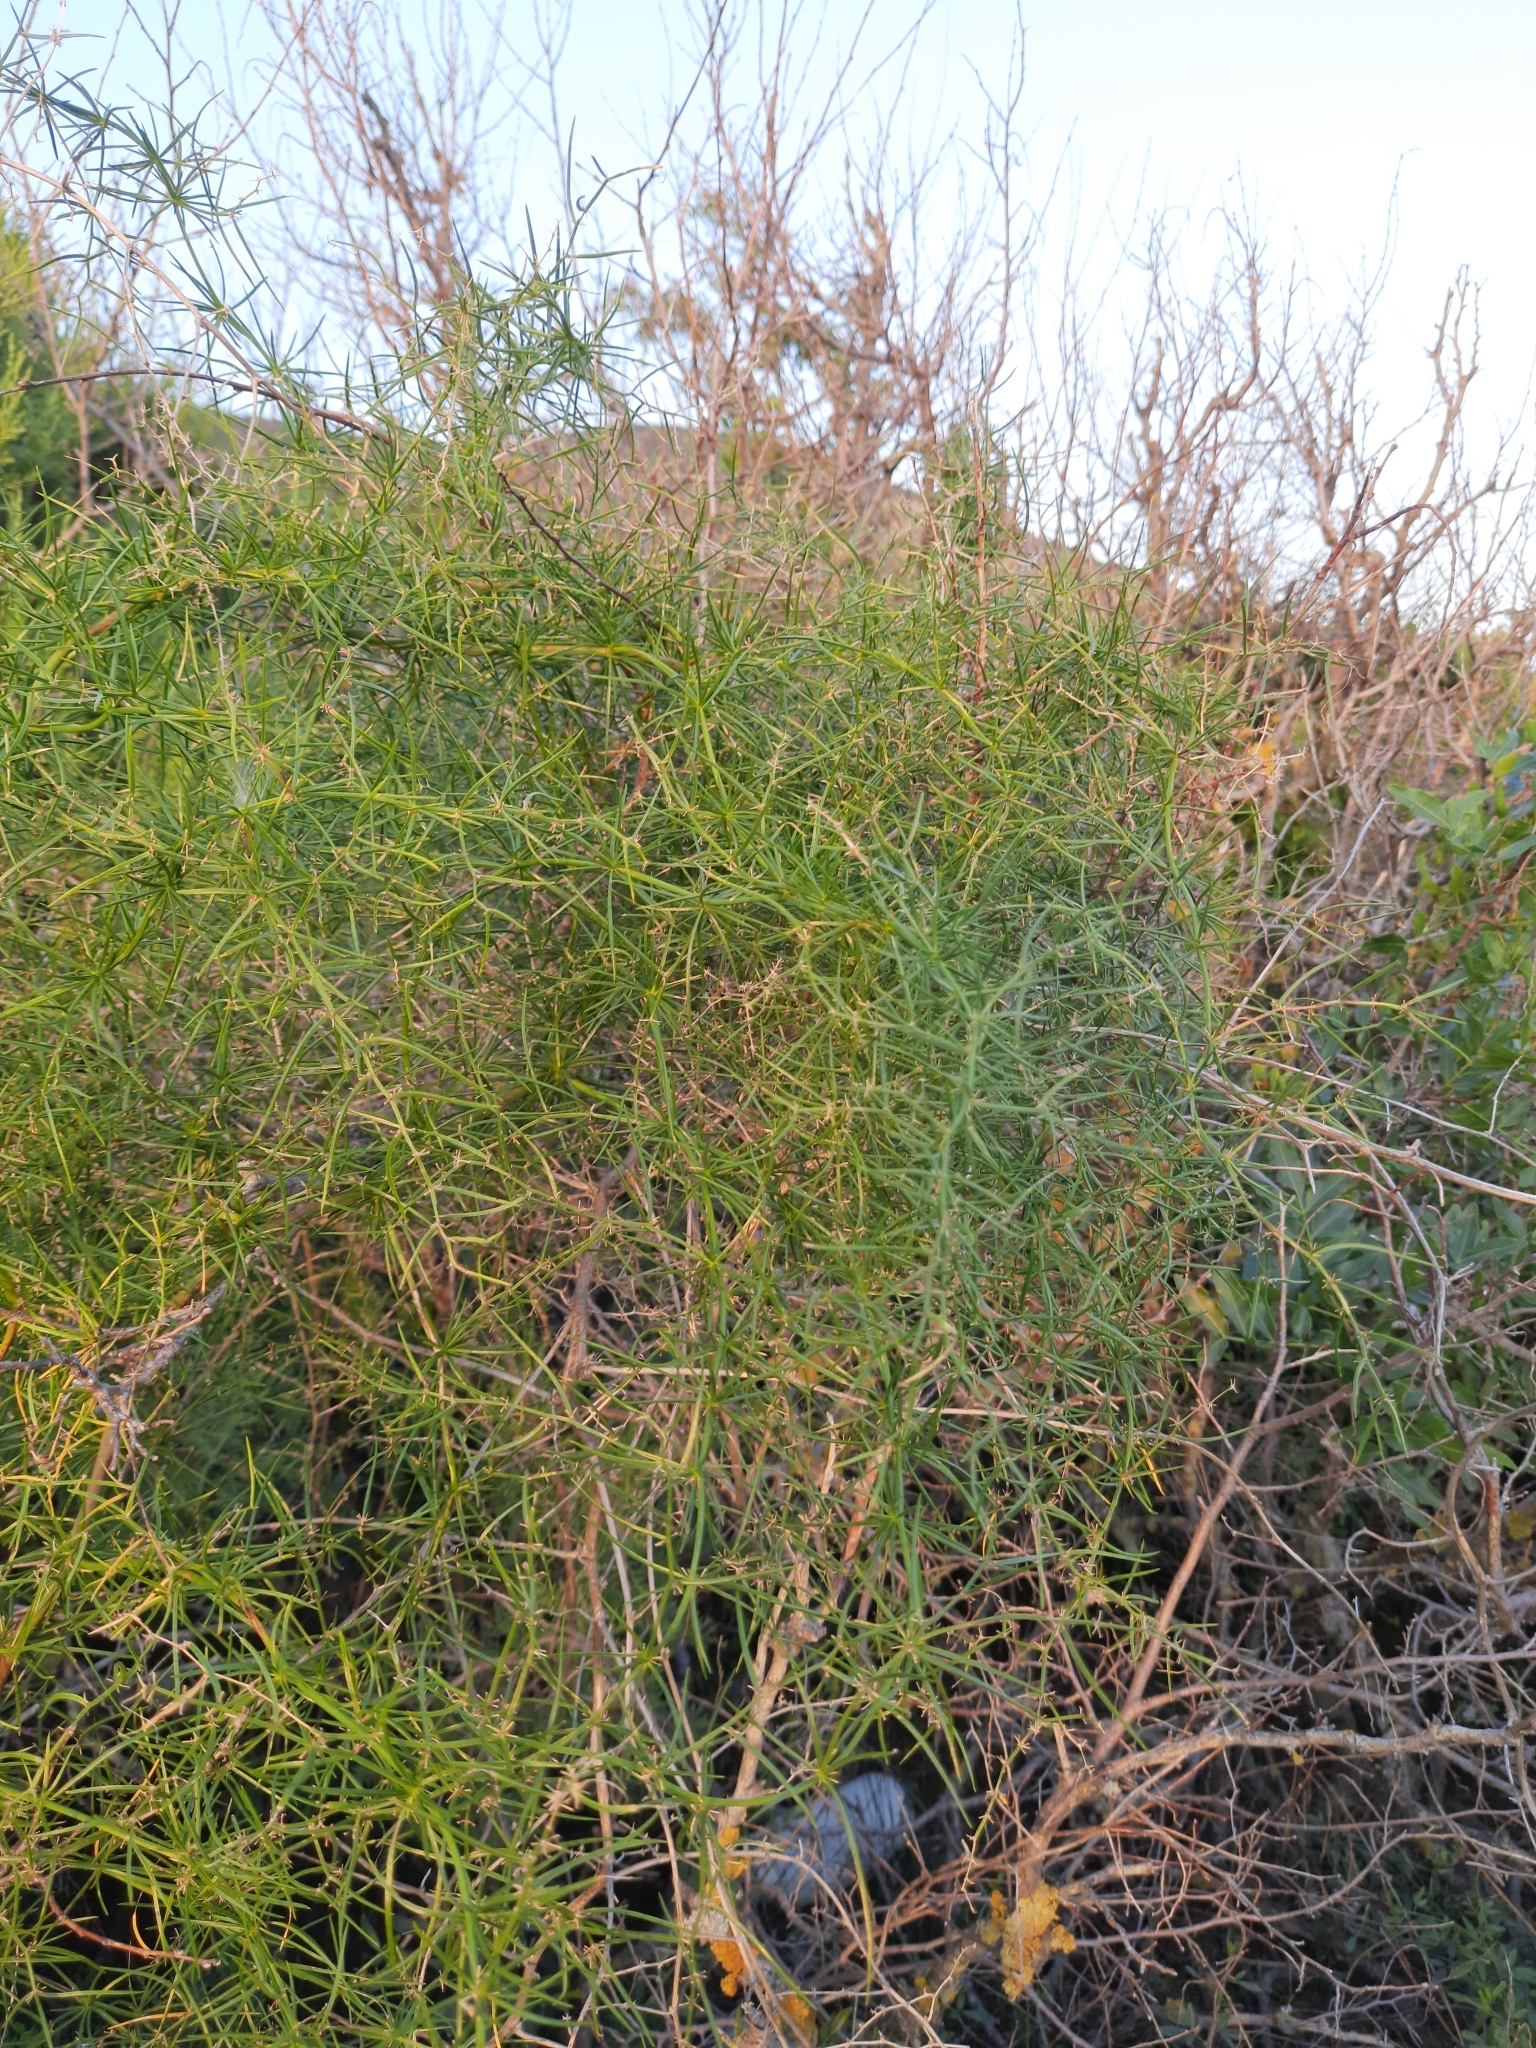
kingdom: Plantae
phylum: Tracheophyta
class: Liliopsida
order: Asparagales
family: Asparagaceae
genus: Asparagus
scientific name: Asparagus verticillatus
